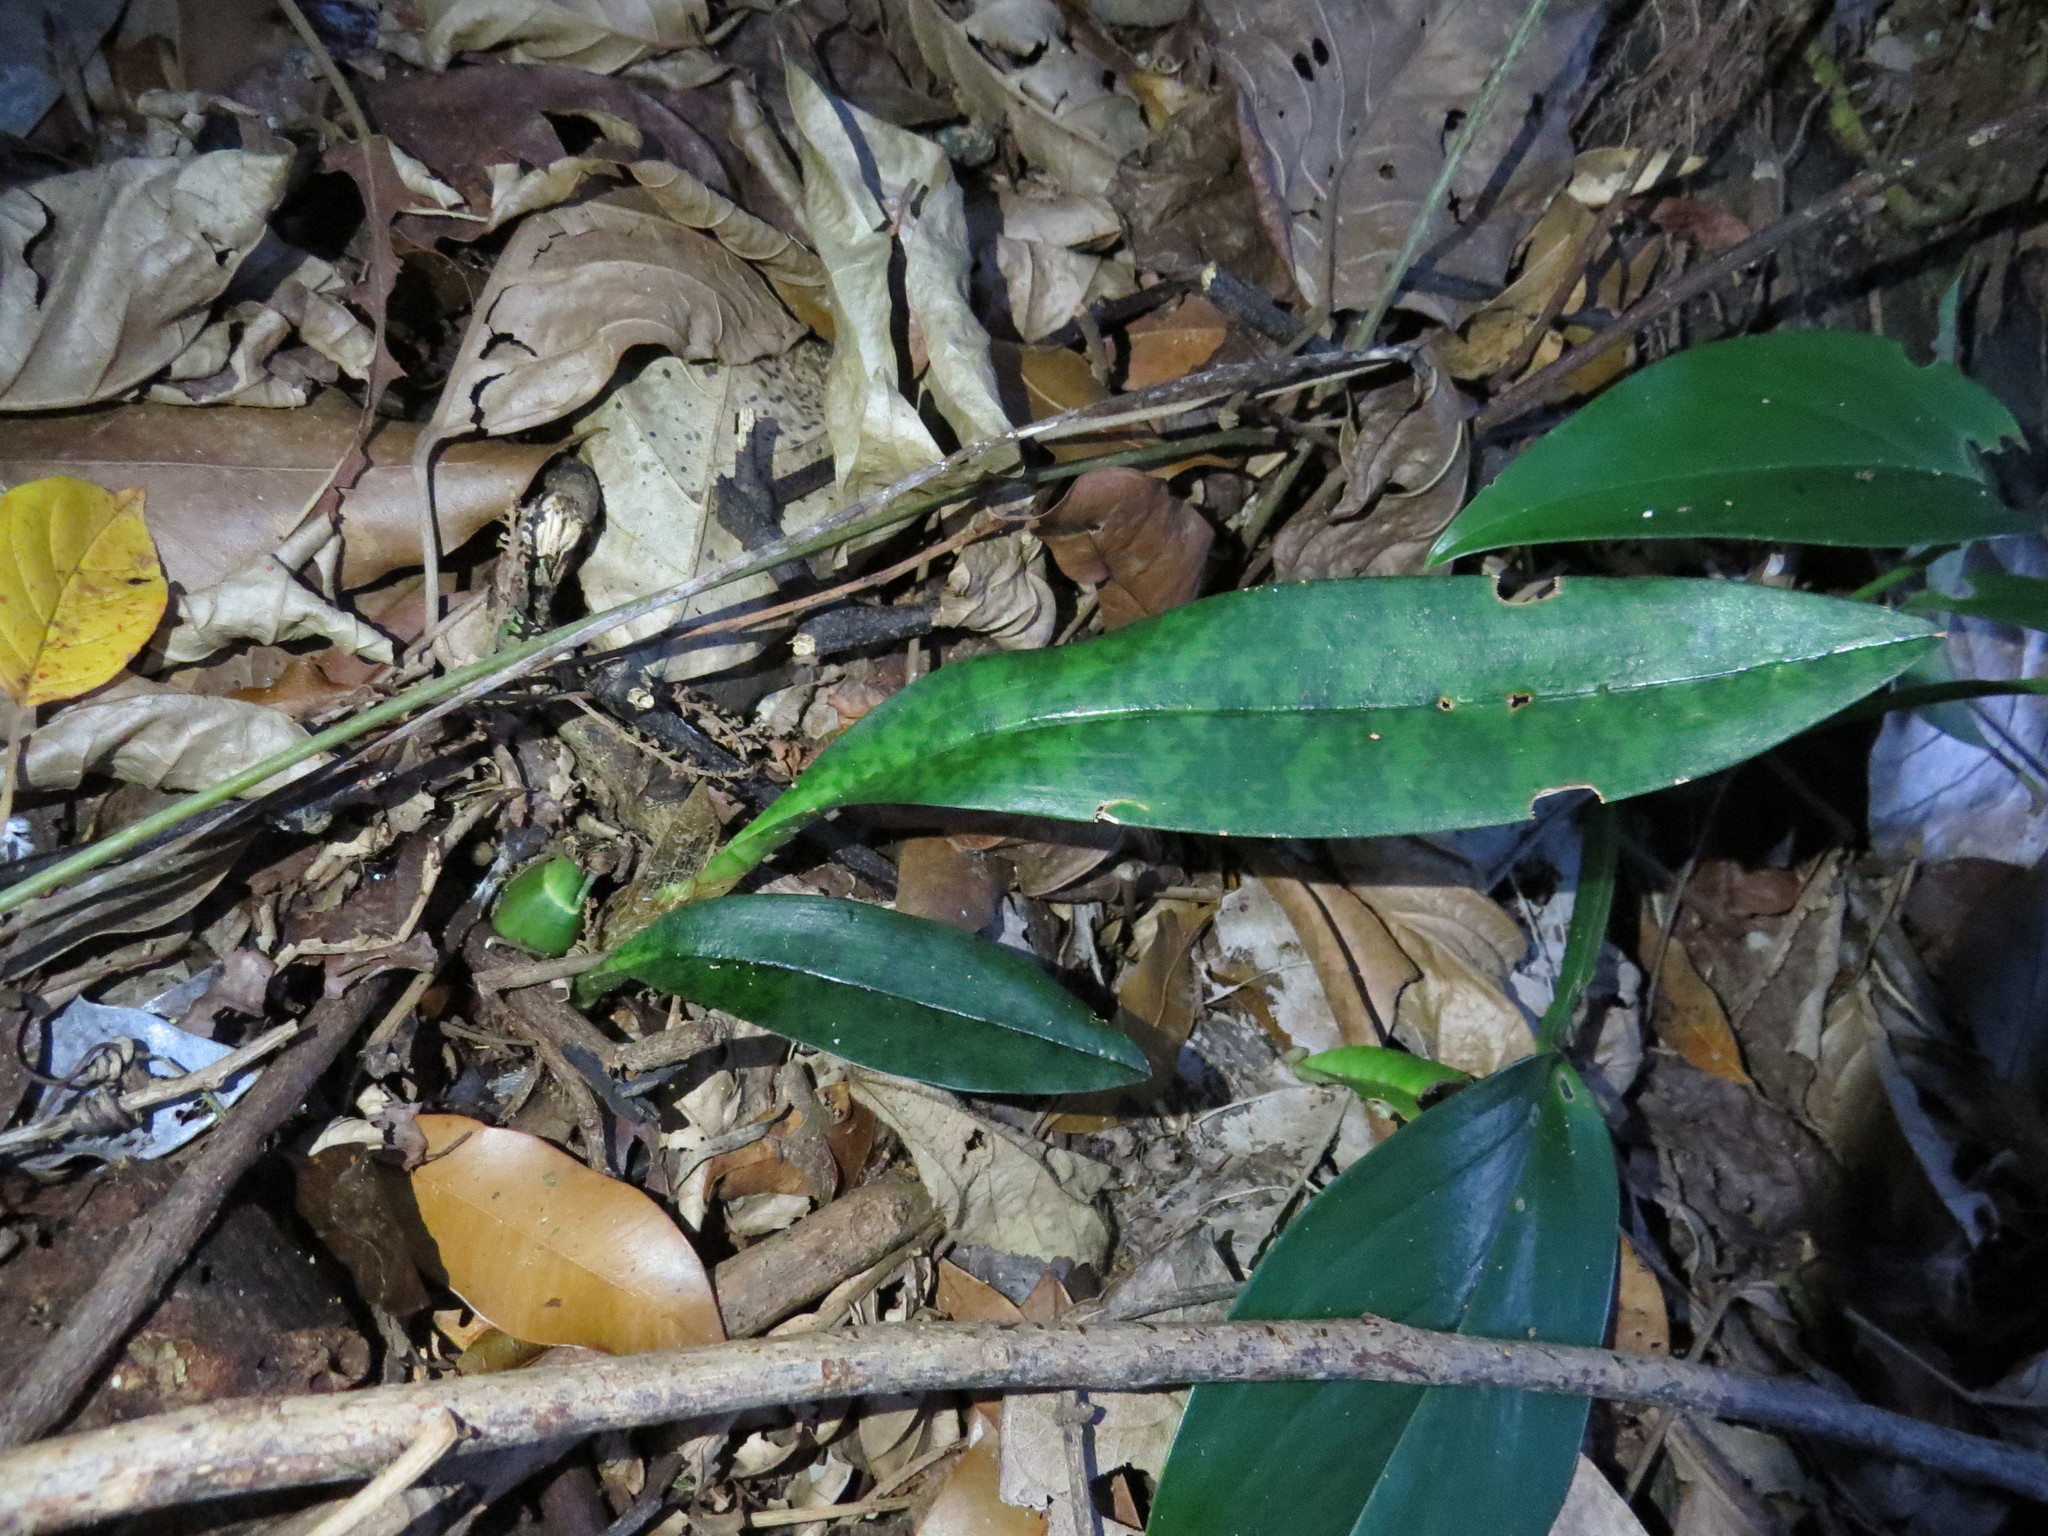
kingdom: Plantae
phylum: Tracheophyta
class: Liliopsida
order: Asparagales
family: Orchidaceae
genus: Eulophia
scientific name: Eulophia maculata
